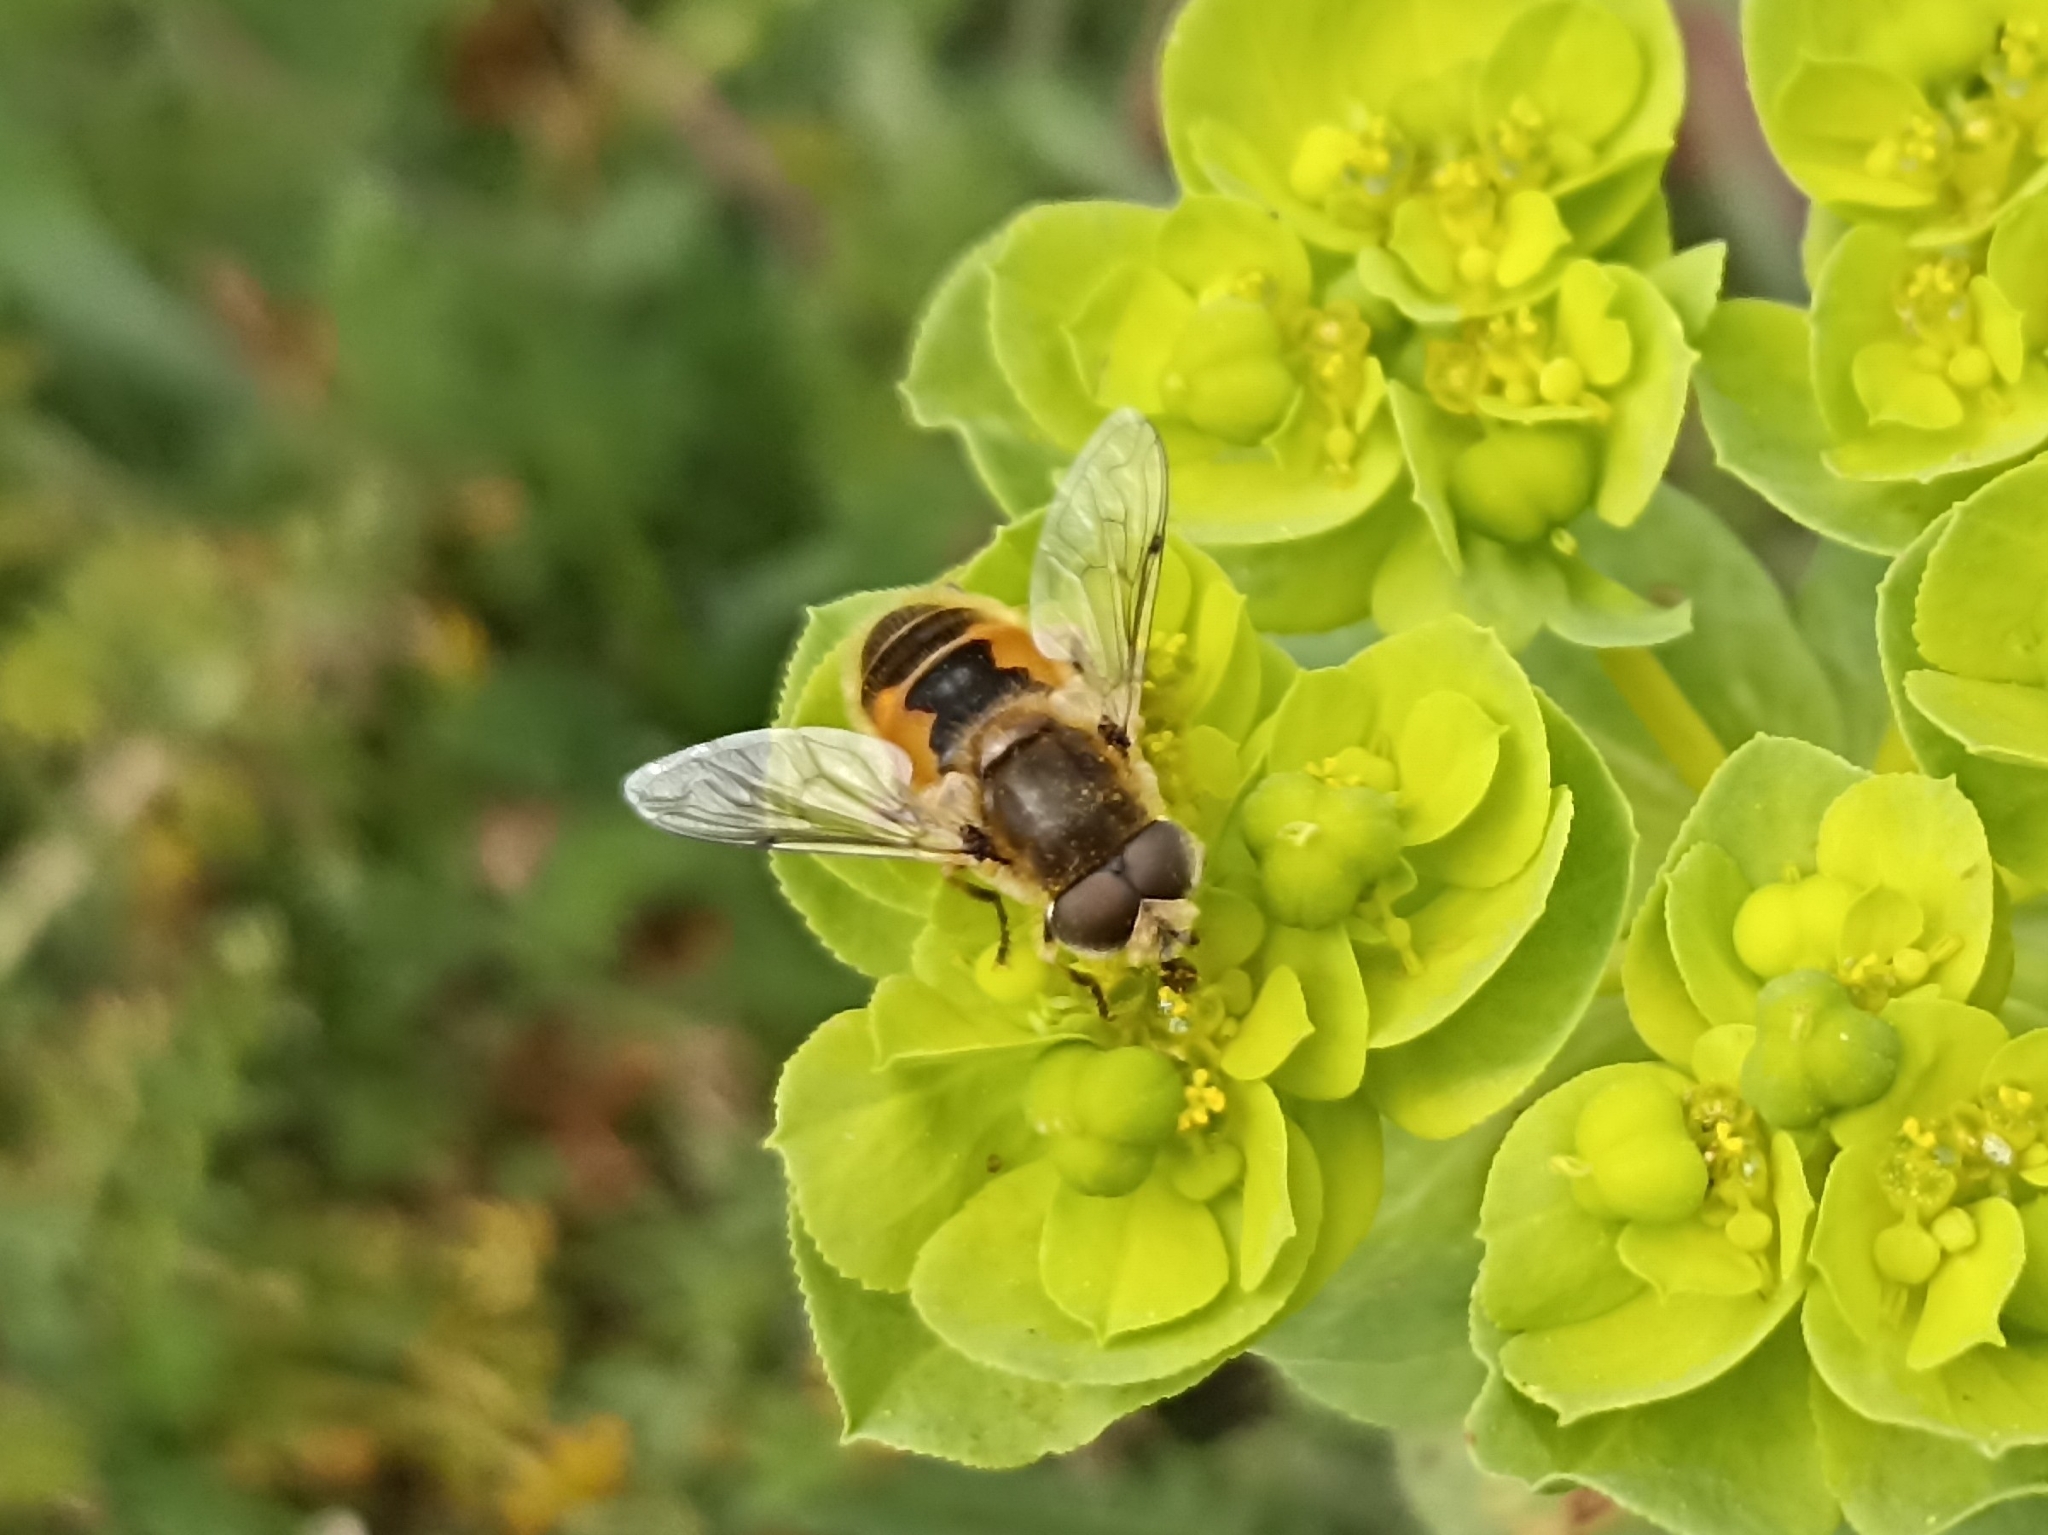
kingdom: Animalia
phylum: Arthropoda
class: Insecta
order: Diptera
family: Syrphidae
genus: Eristalis
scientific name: Eristalis arbustorum
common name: Hover fly
